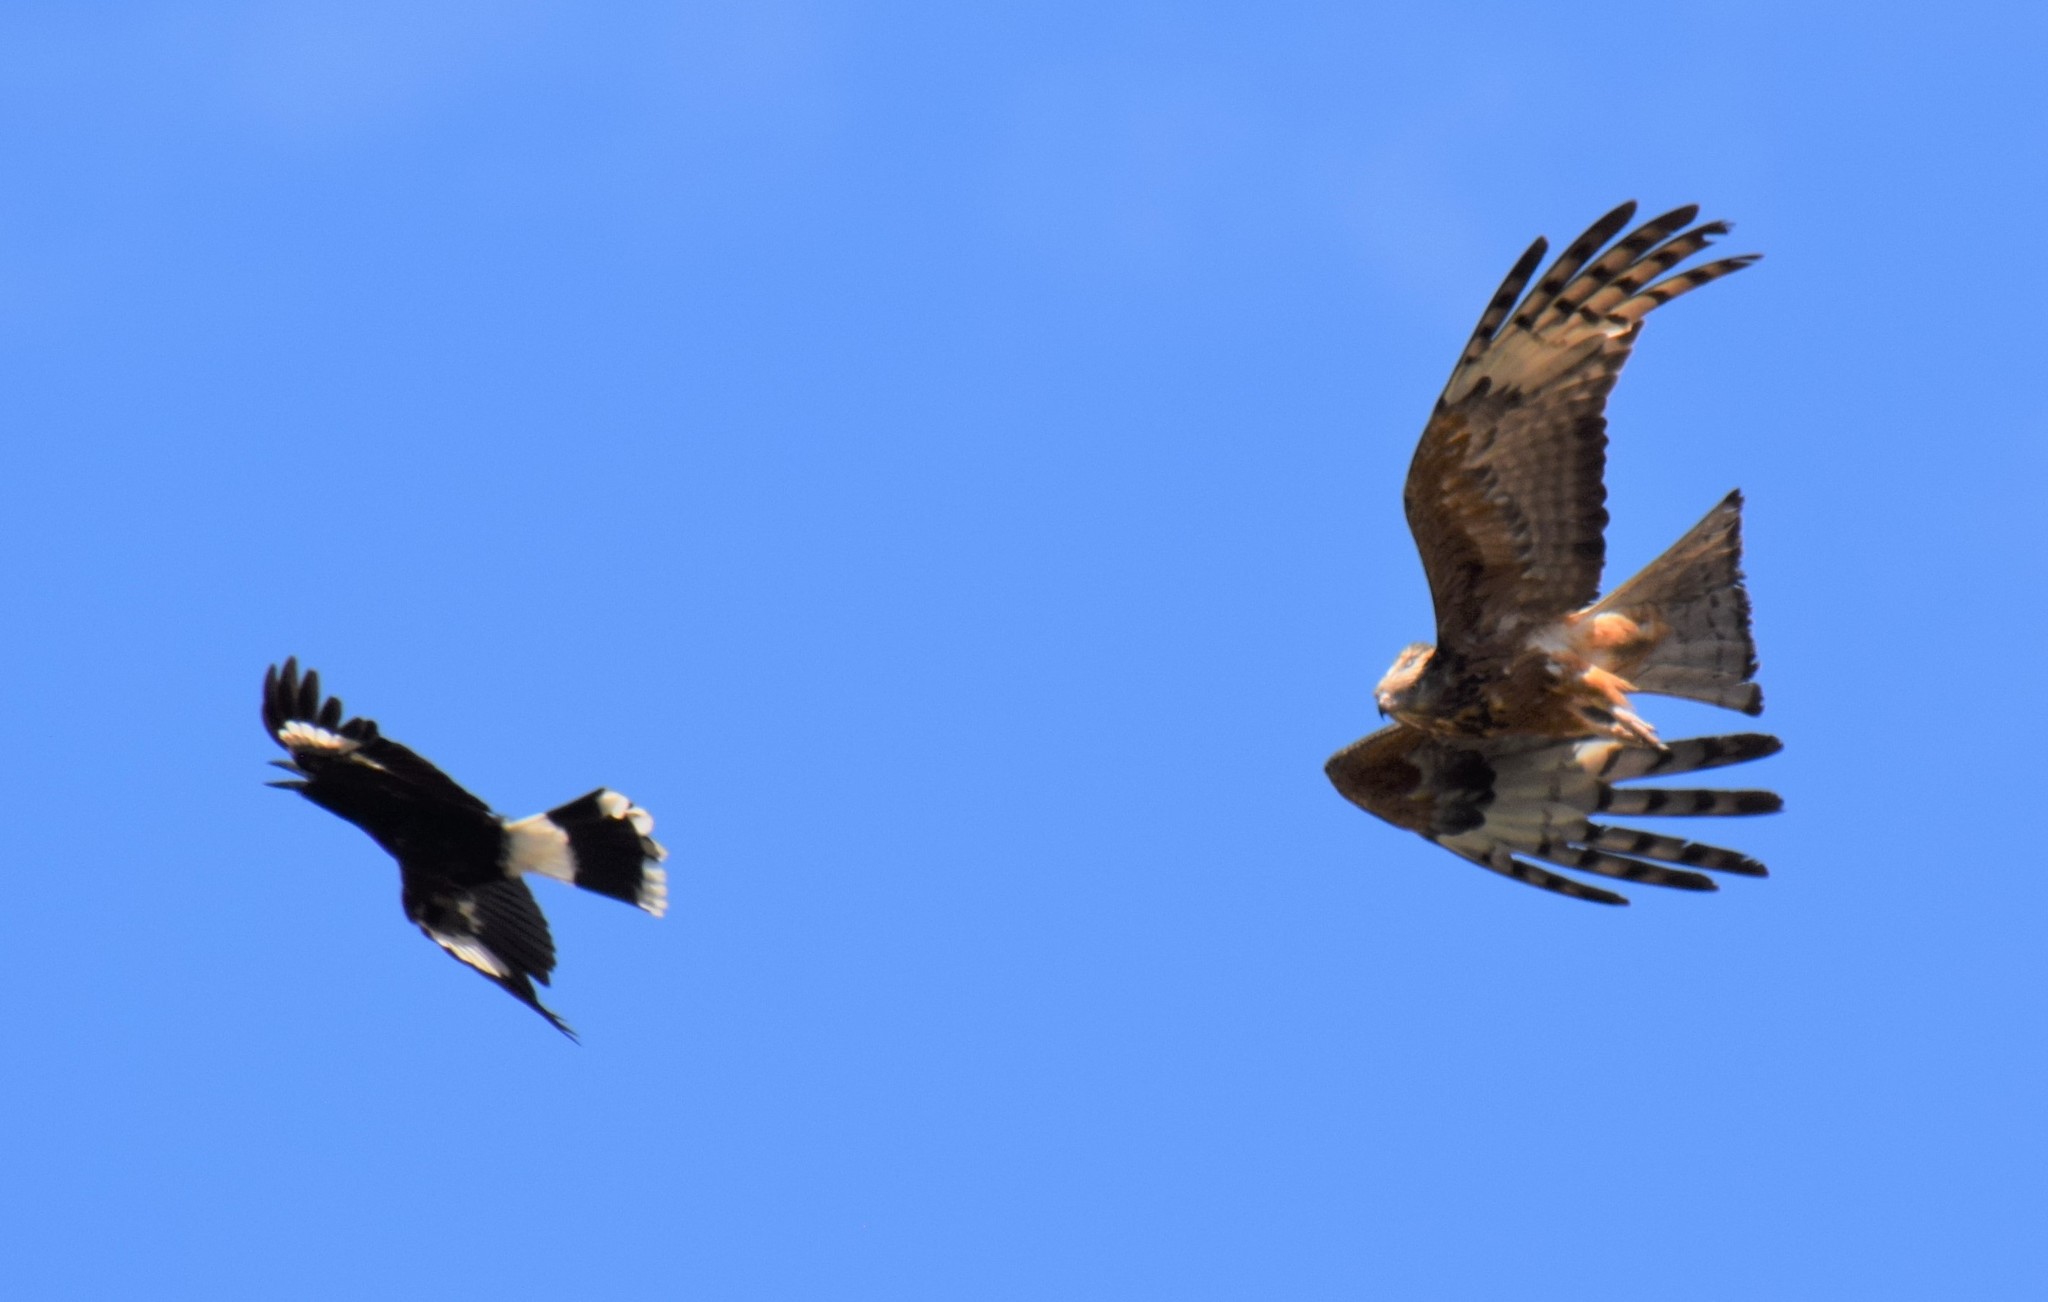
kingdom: Animalia
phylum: Chordata
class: Aves
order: Passeriformes
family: Cracticidae
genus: Strepera
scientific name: Strepera graculina
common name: Pied currawong
